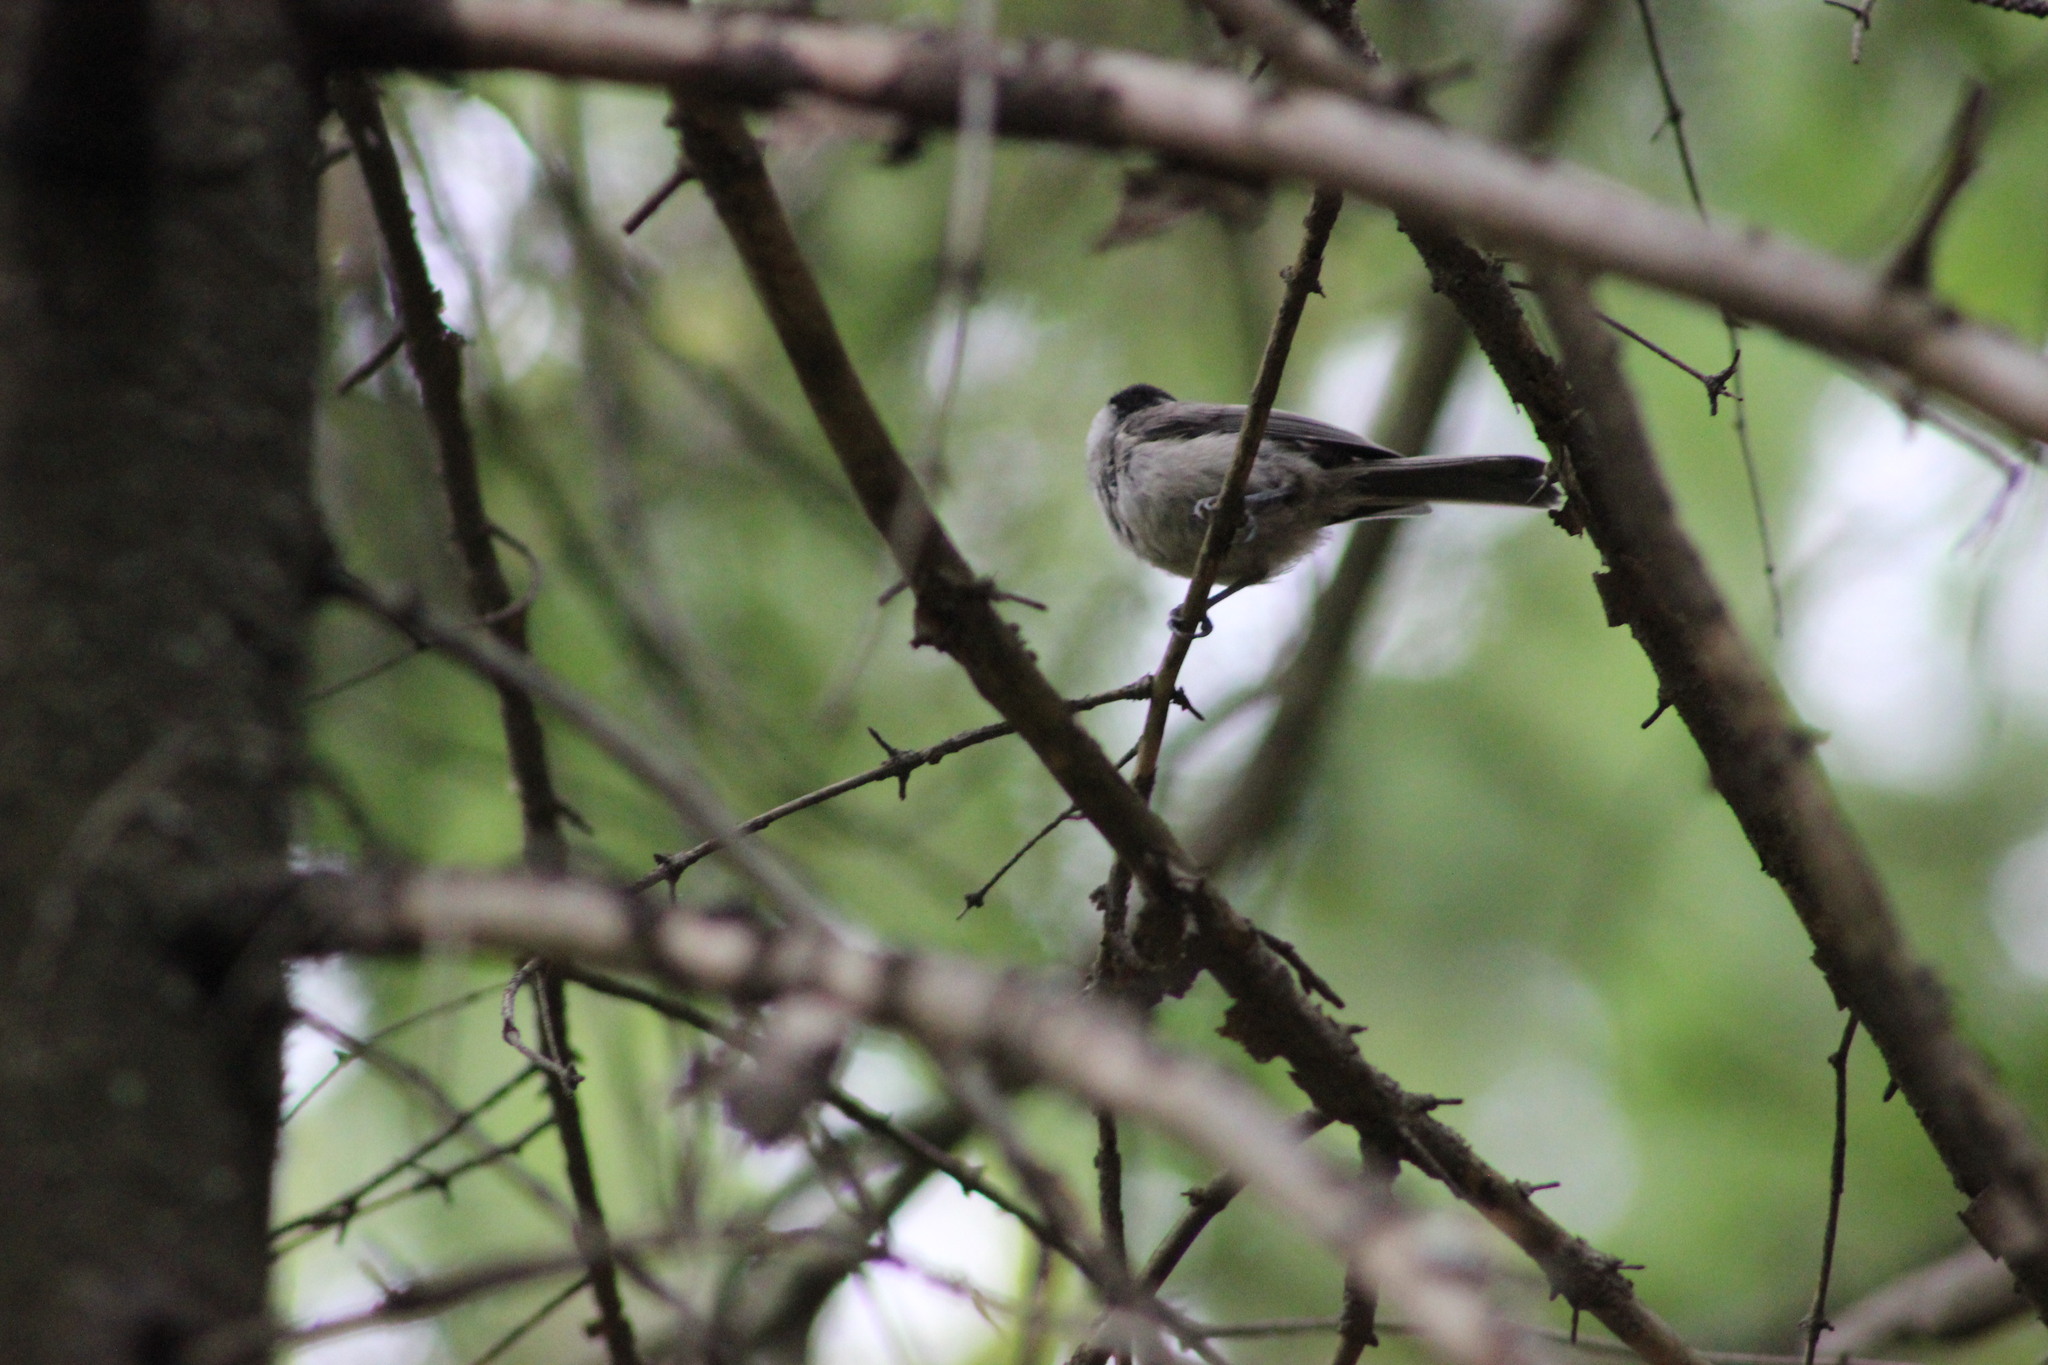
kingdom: Animalia
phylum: Chordata
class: Aves
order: Passeriformes
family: Paridae
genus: Poecile
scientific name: Poecile montanus
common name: Willow tit
